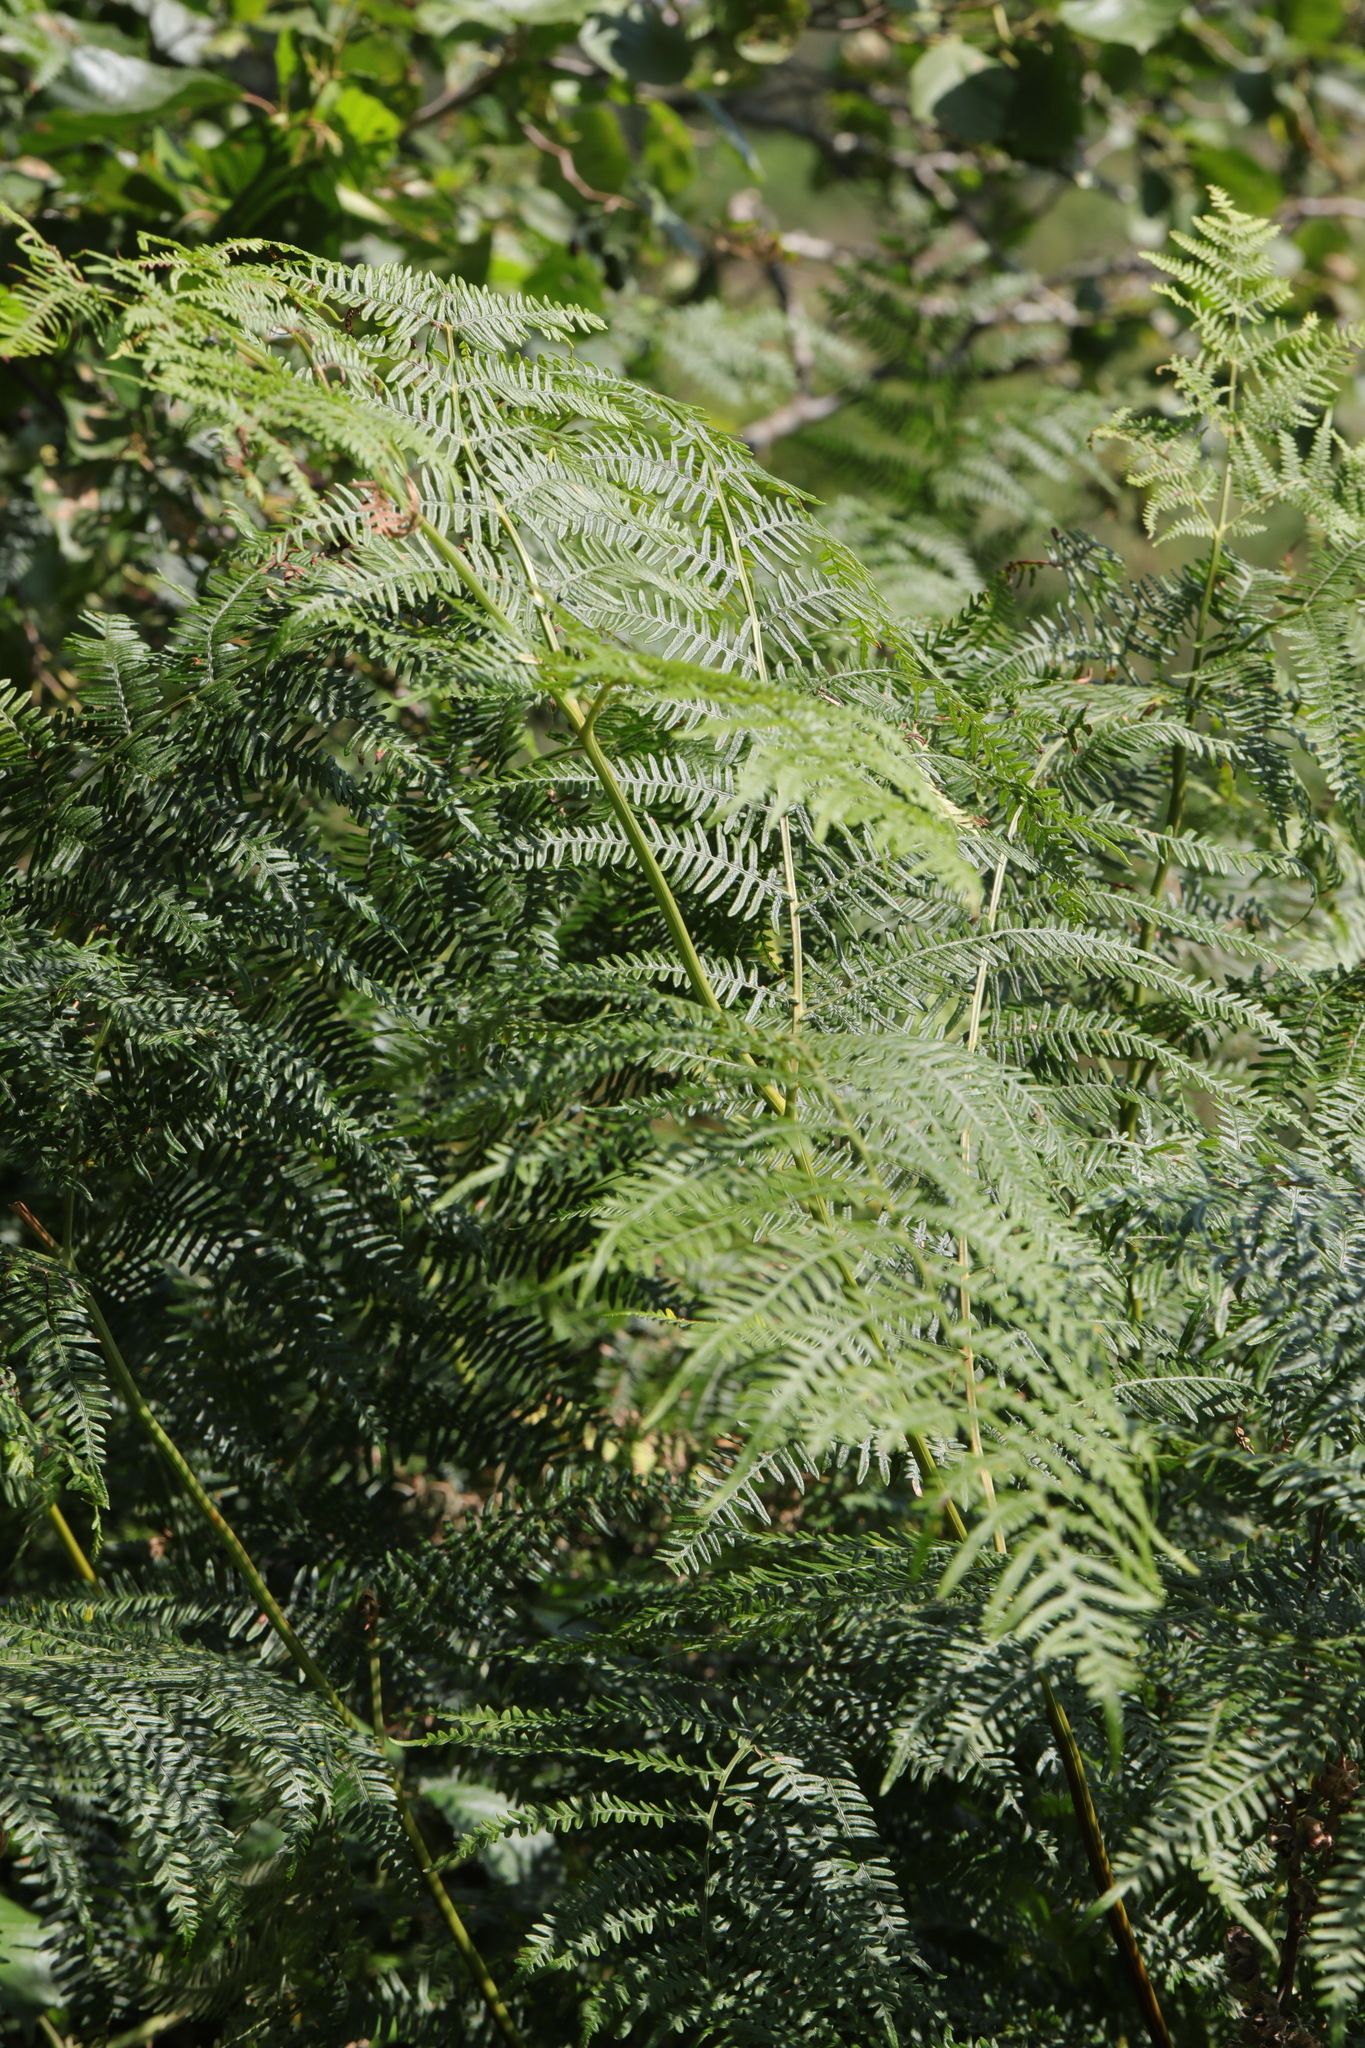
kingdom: Plantae
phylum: Tracheophyta
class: Polypodiopsida
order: Polypodiales
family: Dennstaedtiaceae
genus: Pteridium
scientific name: Pteridium aquilinum
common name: Bracken
